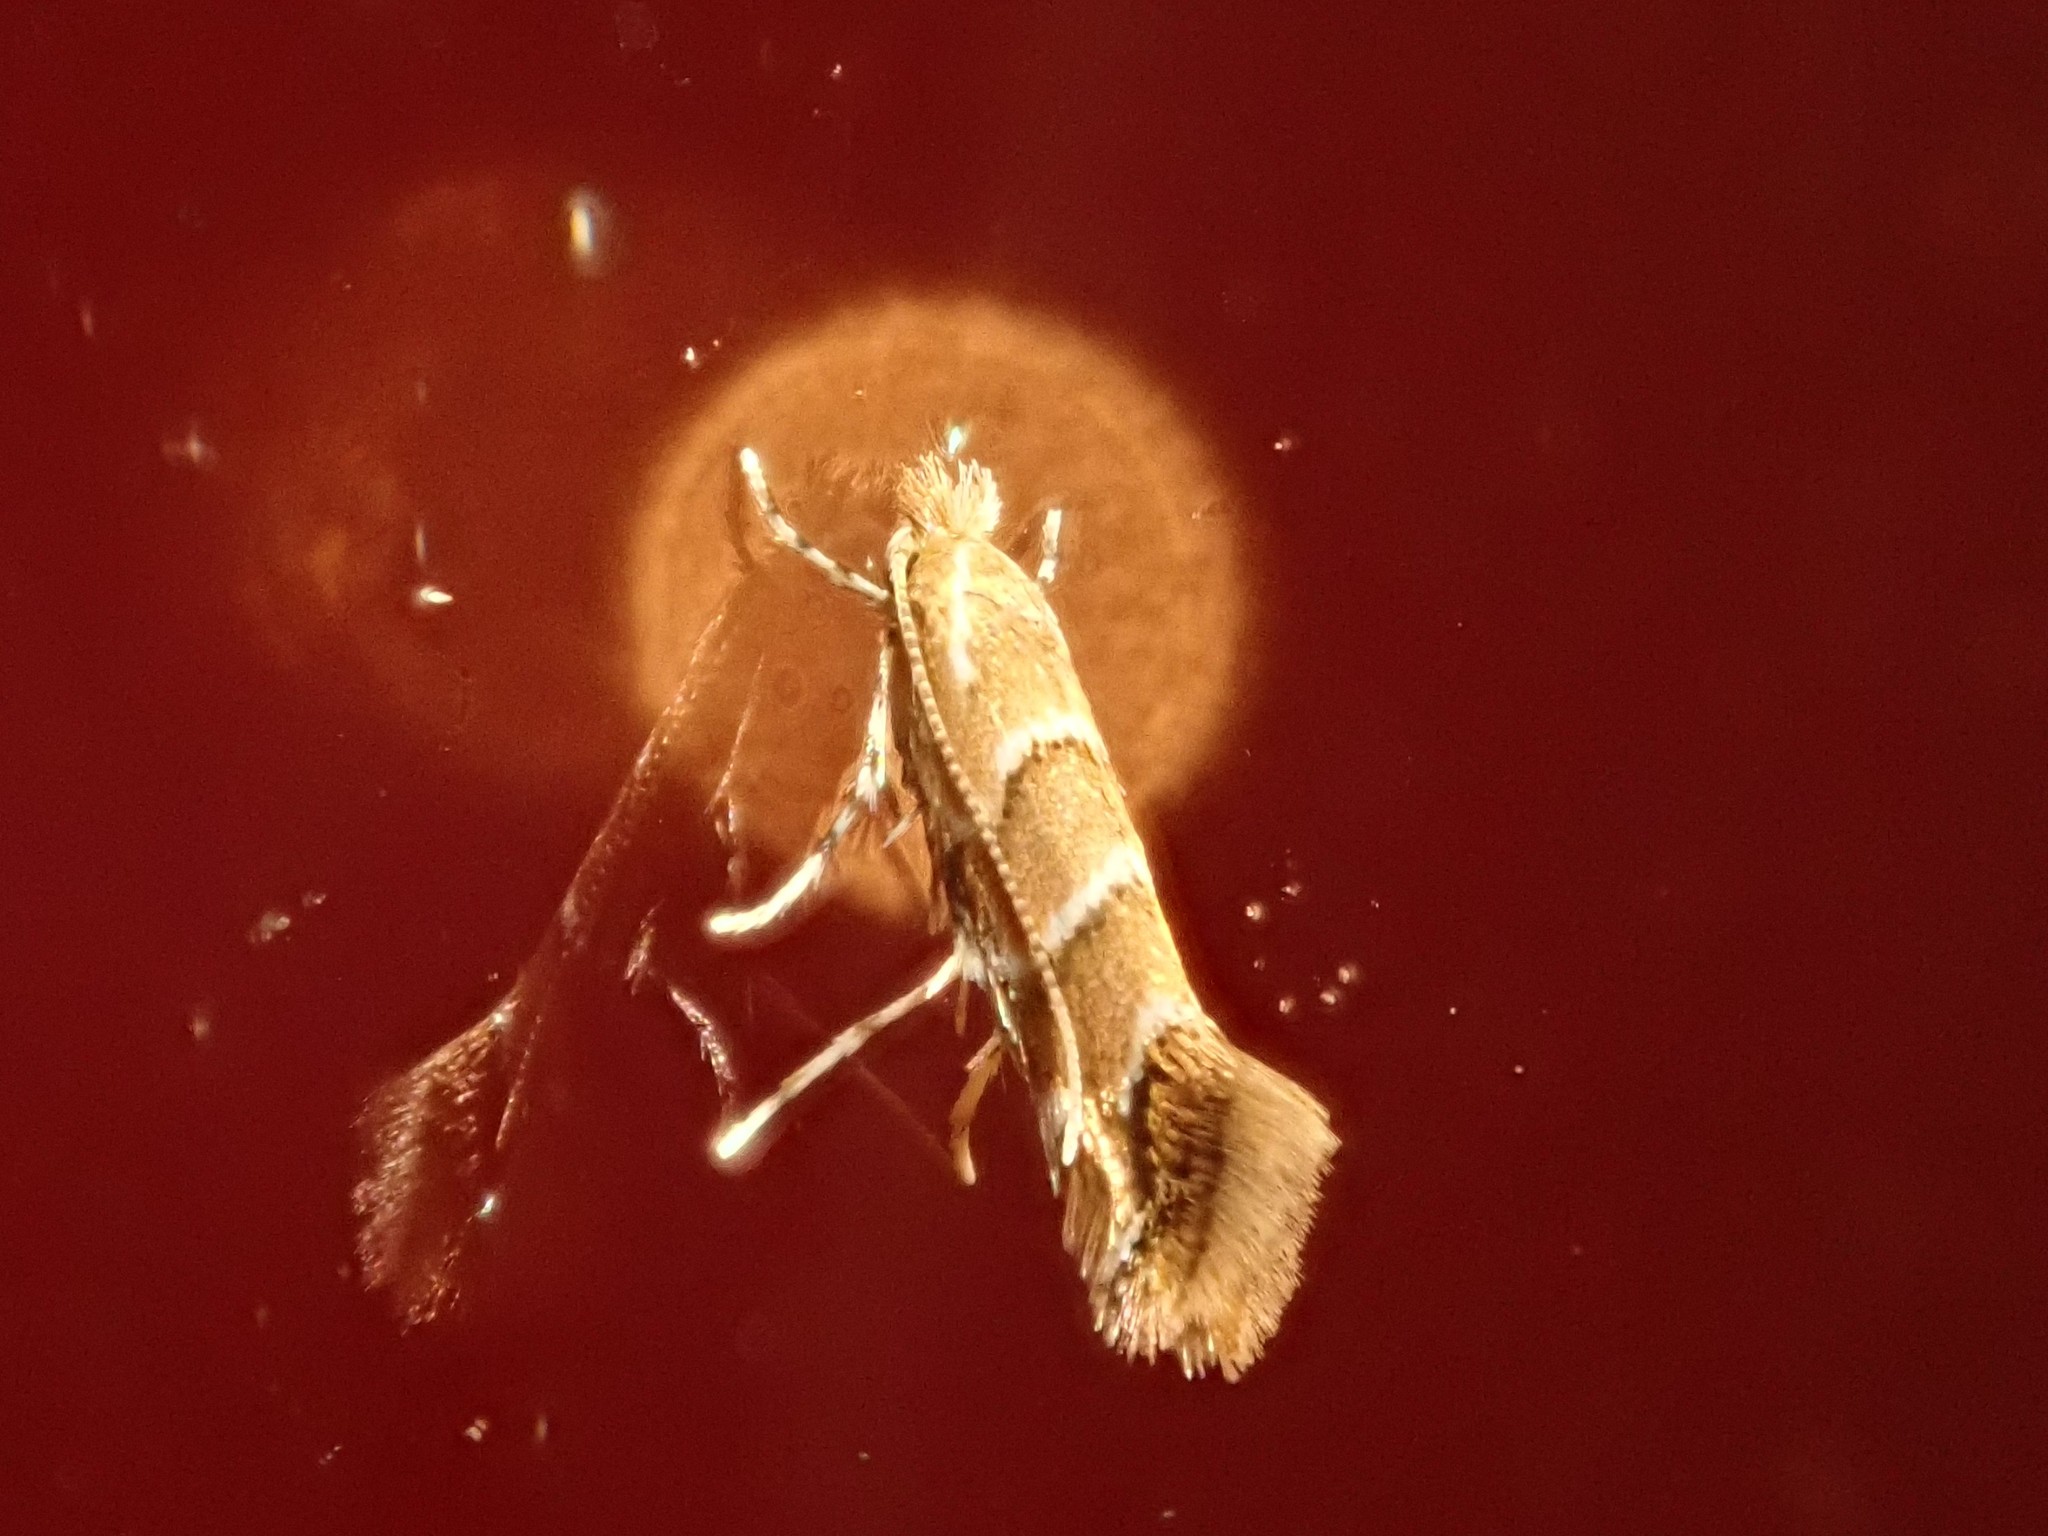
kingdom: Animalia
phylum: Arthropoda
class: Insecta
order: Lepidoptera
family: Gracillariidae
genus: Cameraria
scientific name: Cameraria ohridella
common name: Horse-chestnut leaf-miner
